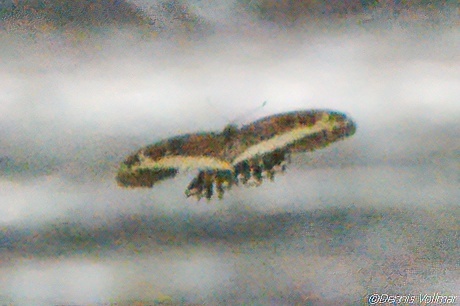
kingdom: Animalia
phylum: Arthropoda
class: Insecta
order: Lepidoptera
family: Papilionidae
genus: Papilio
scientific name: Papilio andraemon
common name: Bahaman swallowtail
